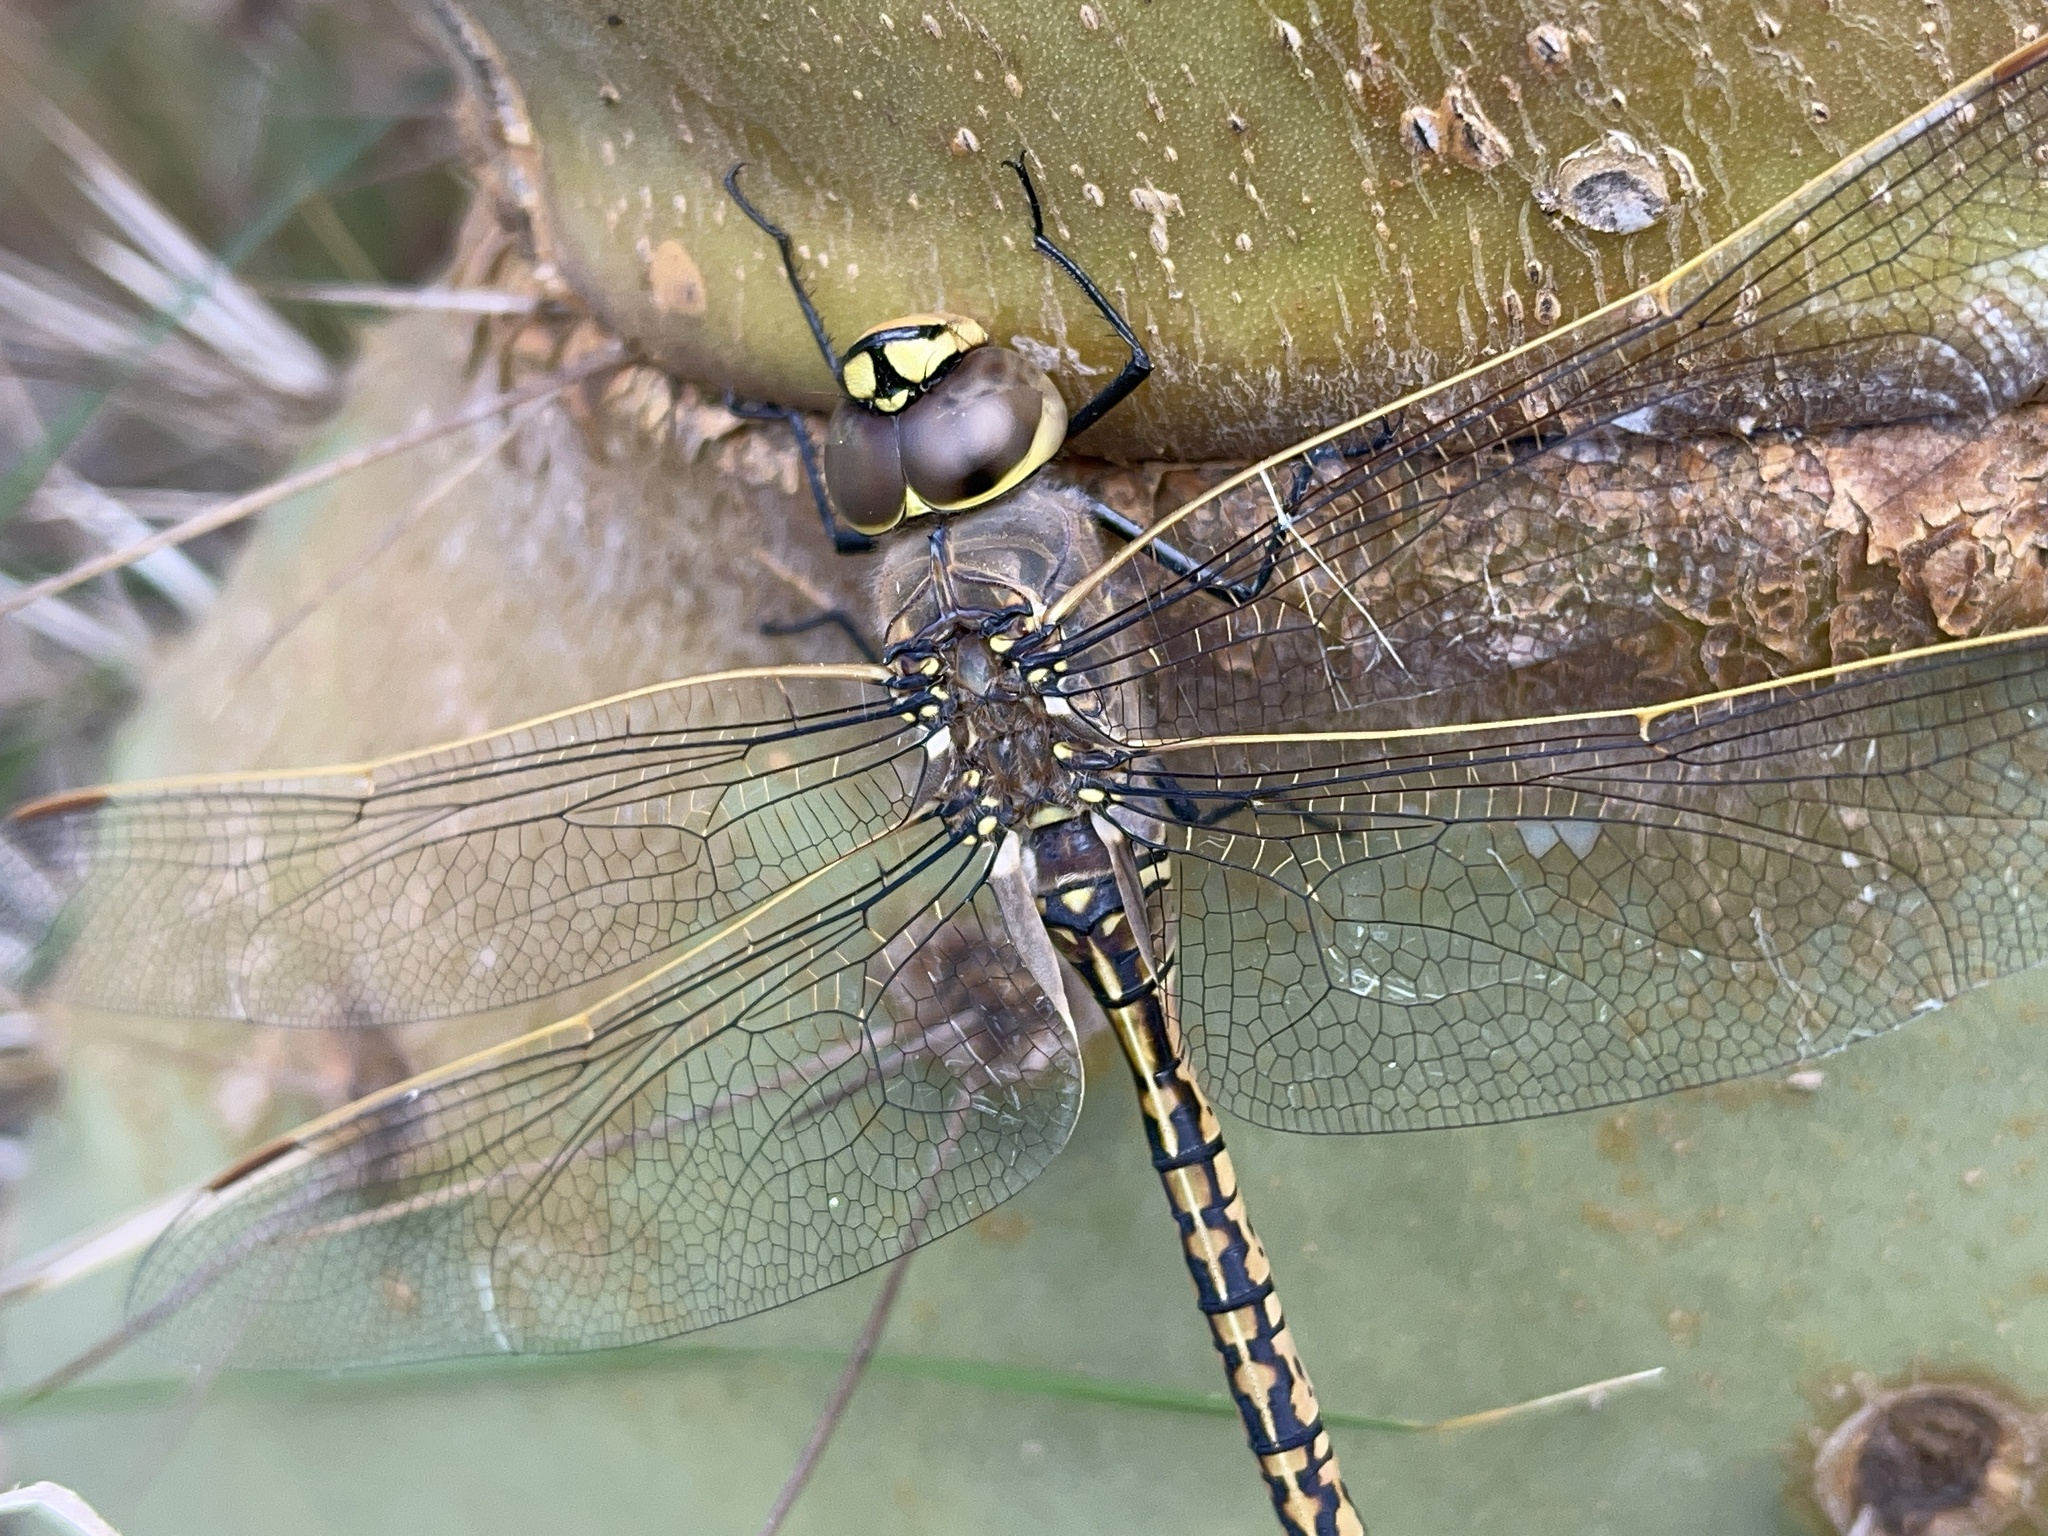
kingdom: Animalia
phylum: Arthropoda
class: Insecta
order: Odonata
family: Aeshnidae
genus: Anax
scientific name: Anax papuensis
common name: Australian emperor
